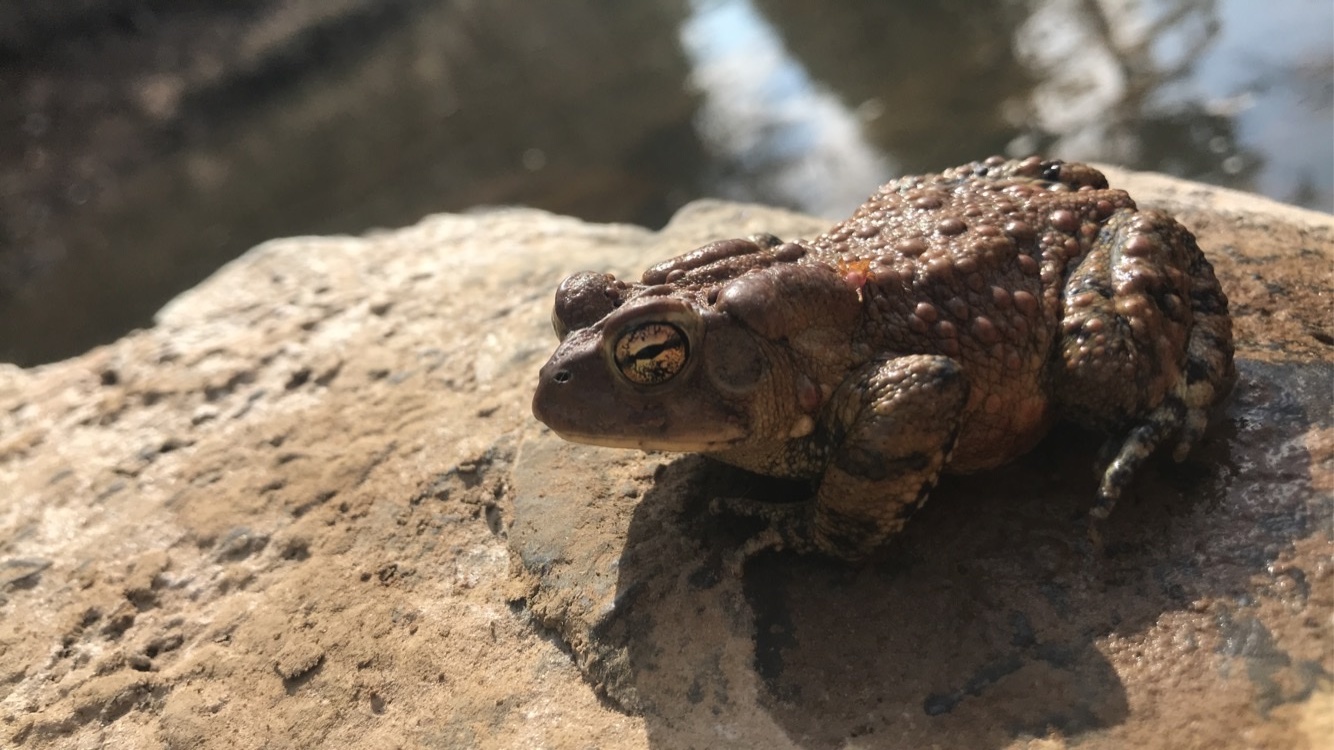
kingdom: Animalia
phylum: Chordata
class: Amphibia
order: Anura
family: Bufonidae
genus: Anaxyrus
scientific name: Anaxyrus americanus
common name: American toad
